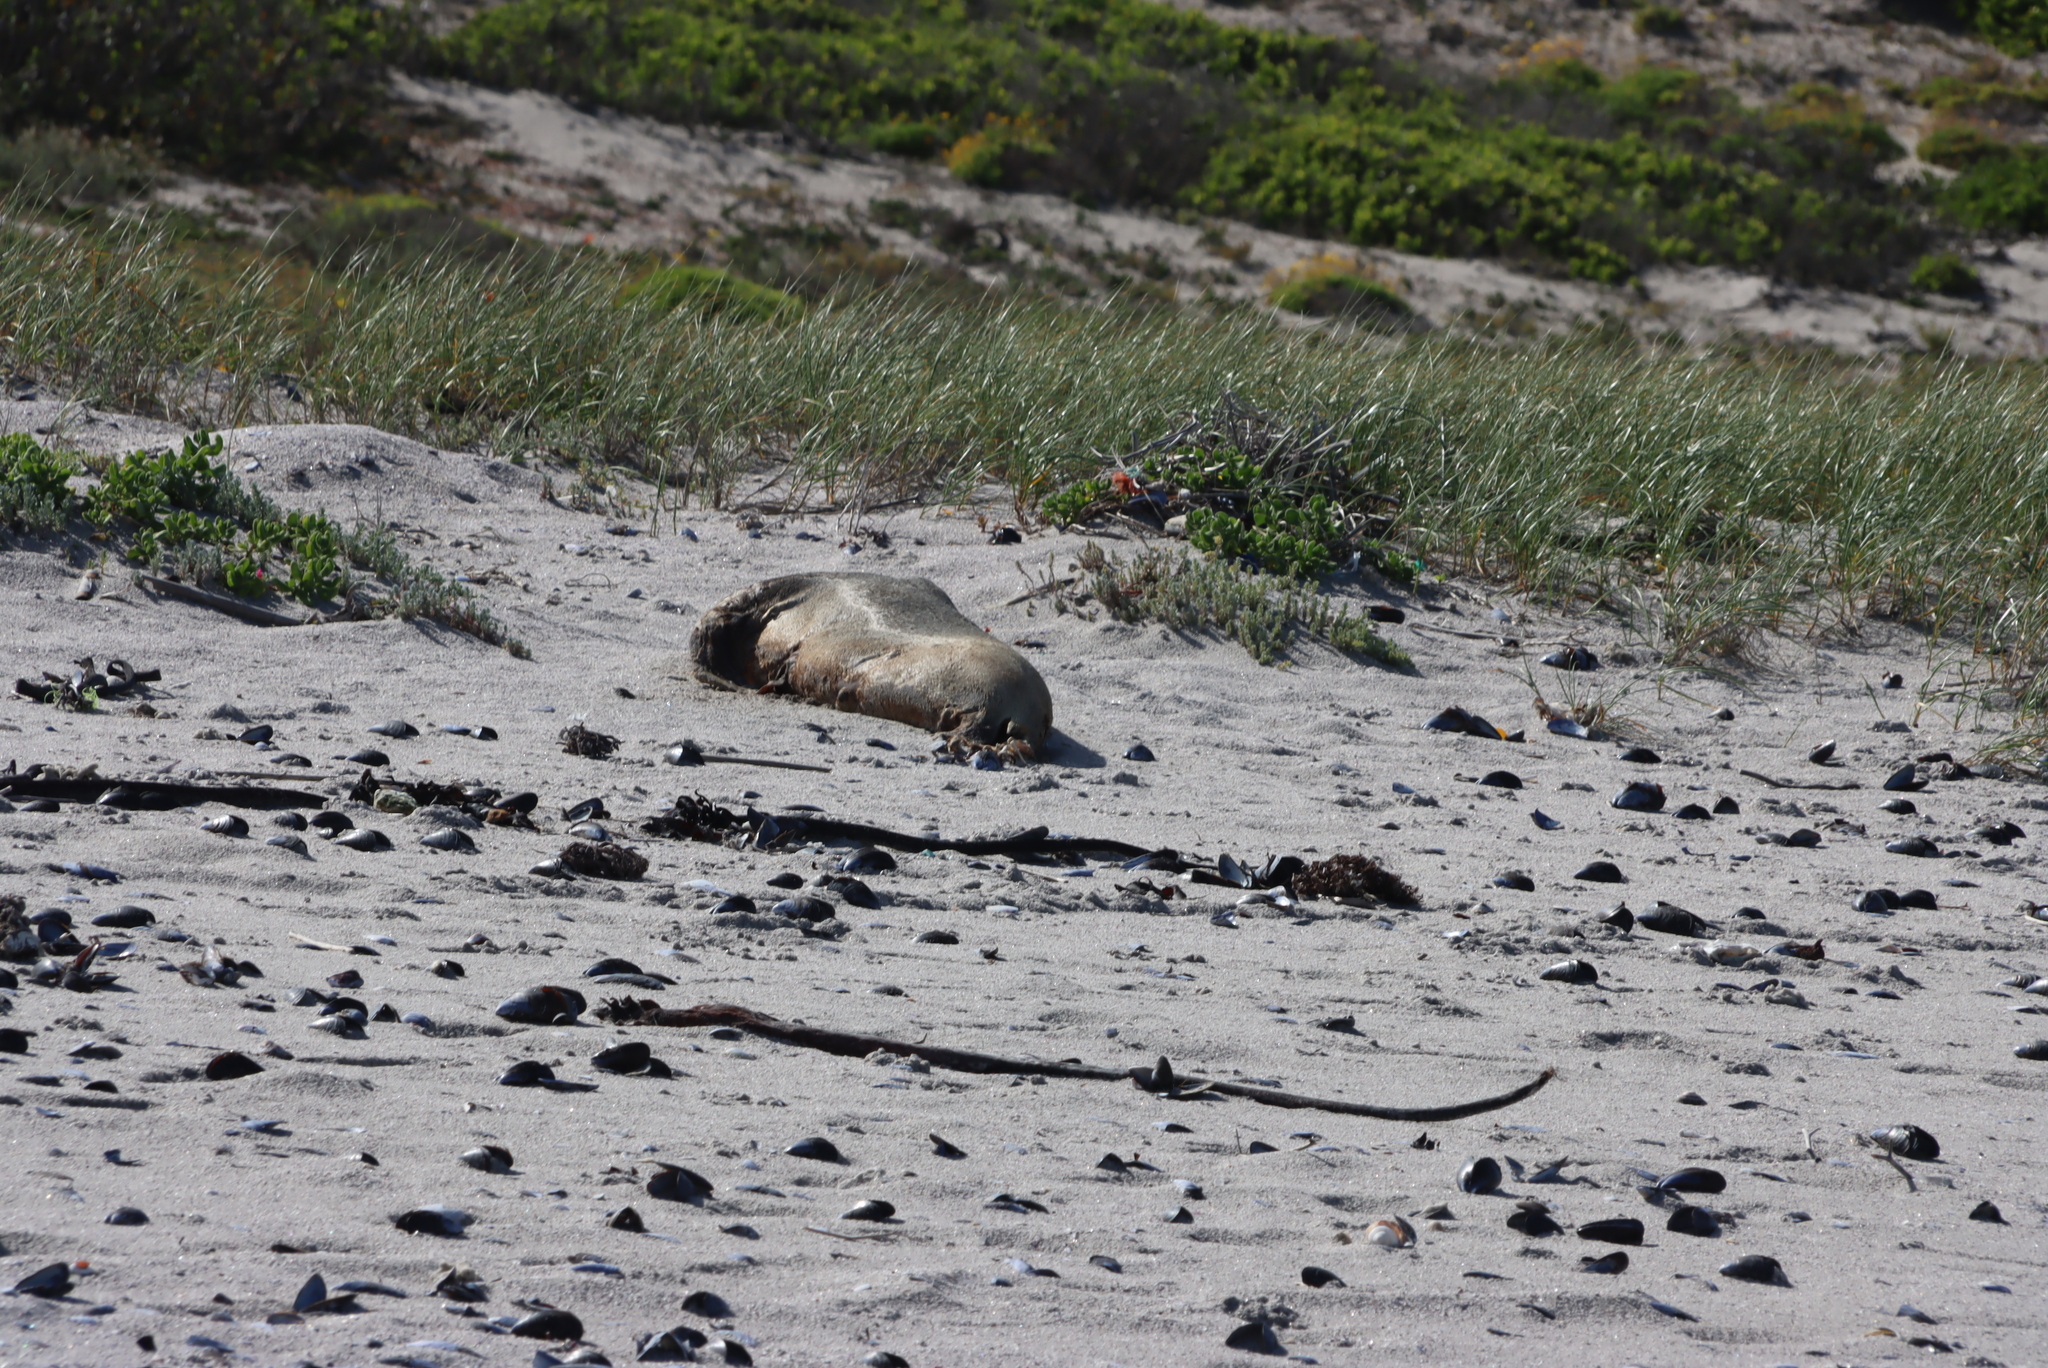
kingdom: Animalia
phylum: Chordata
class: Mammalia
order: Carnivora
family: Otariidae
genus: Arctocephalus
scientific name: Arctocephalus pusillus
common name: Brown fur seal
